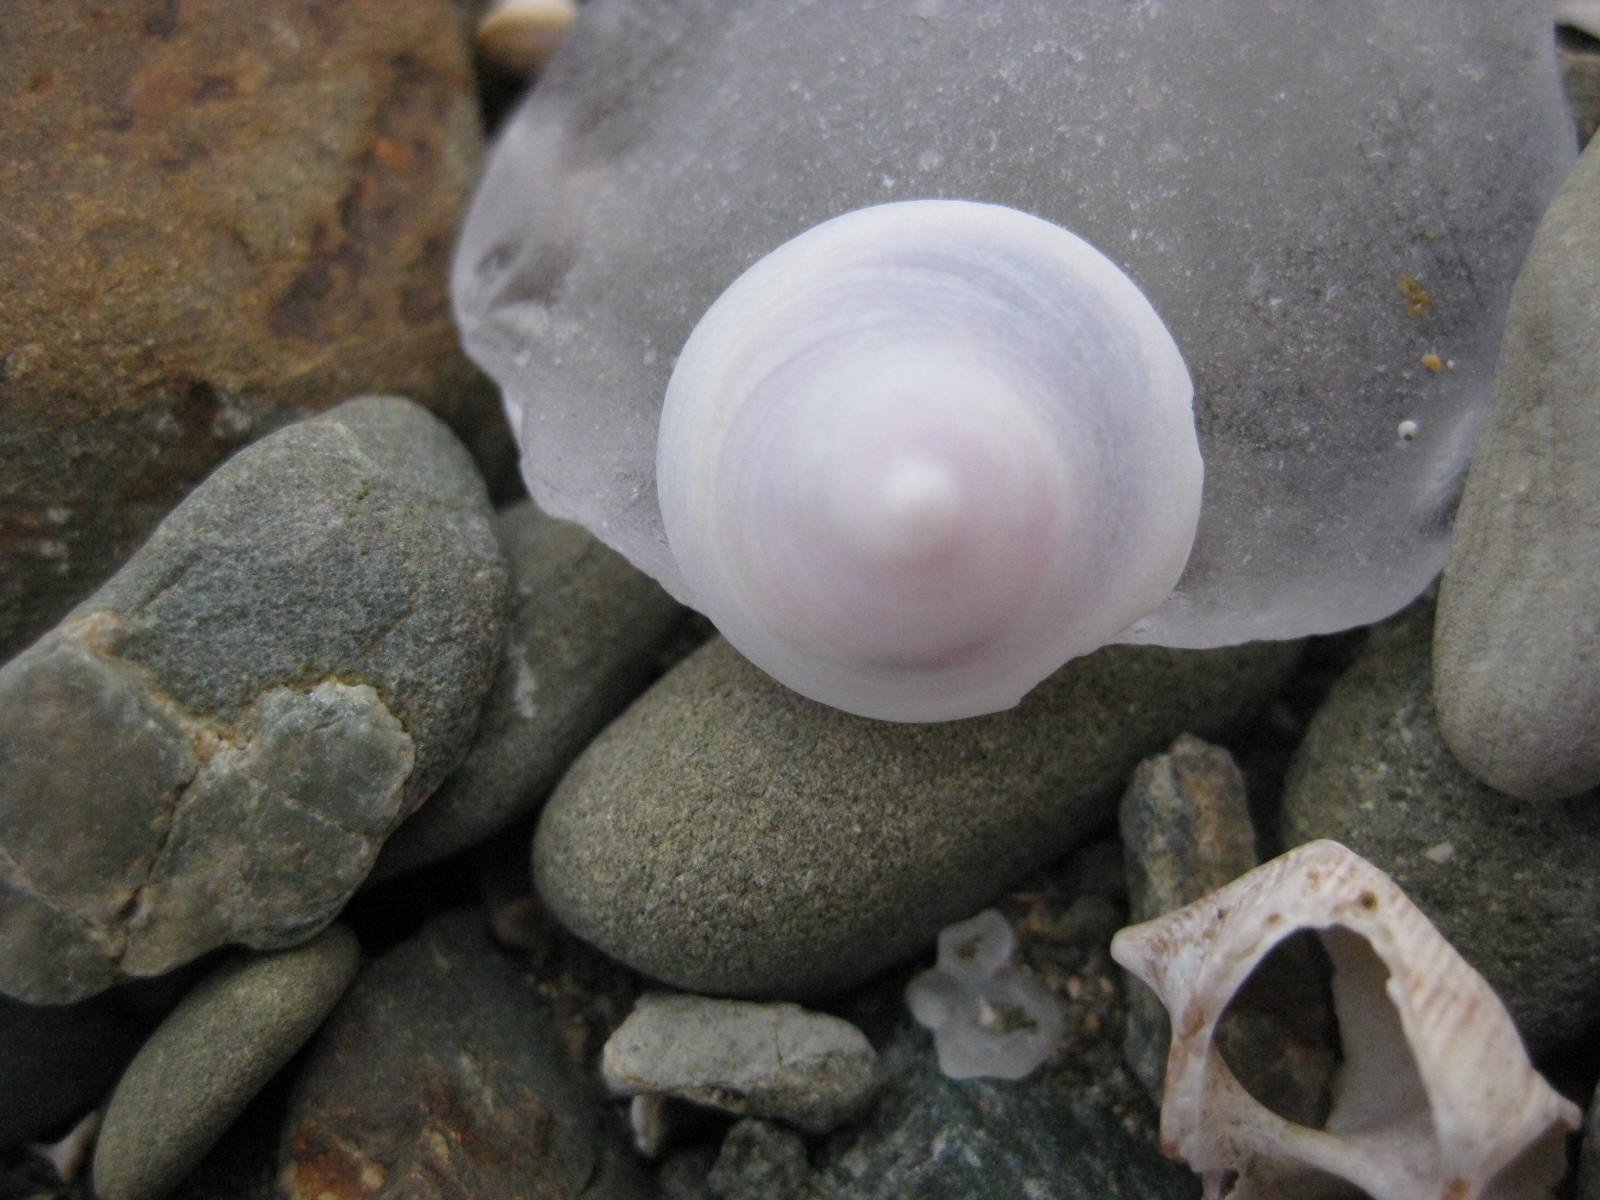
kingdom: Animalia
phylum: Mollusca
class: Gastropoda
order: Littorinimorpha
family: Calyptraeidae
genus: Sigapatella
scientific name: Sigapatella tenuis
